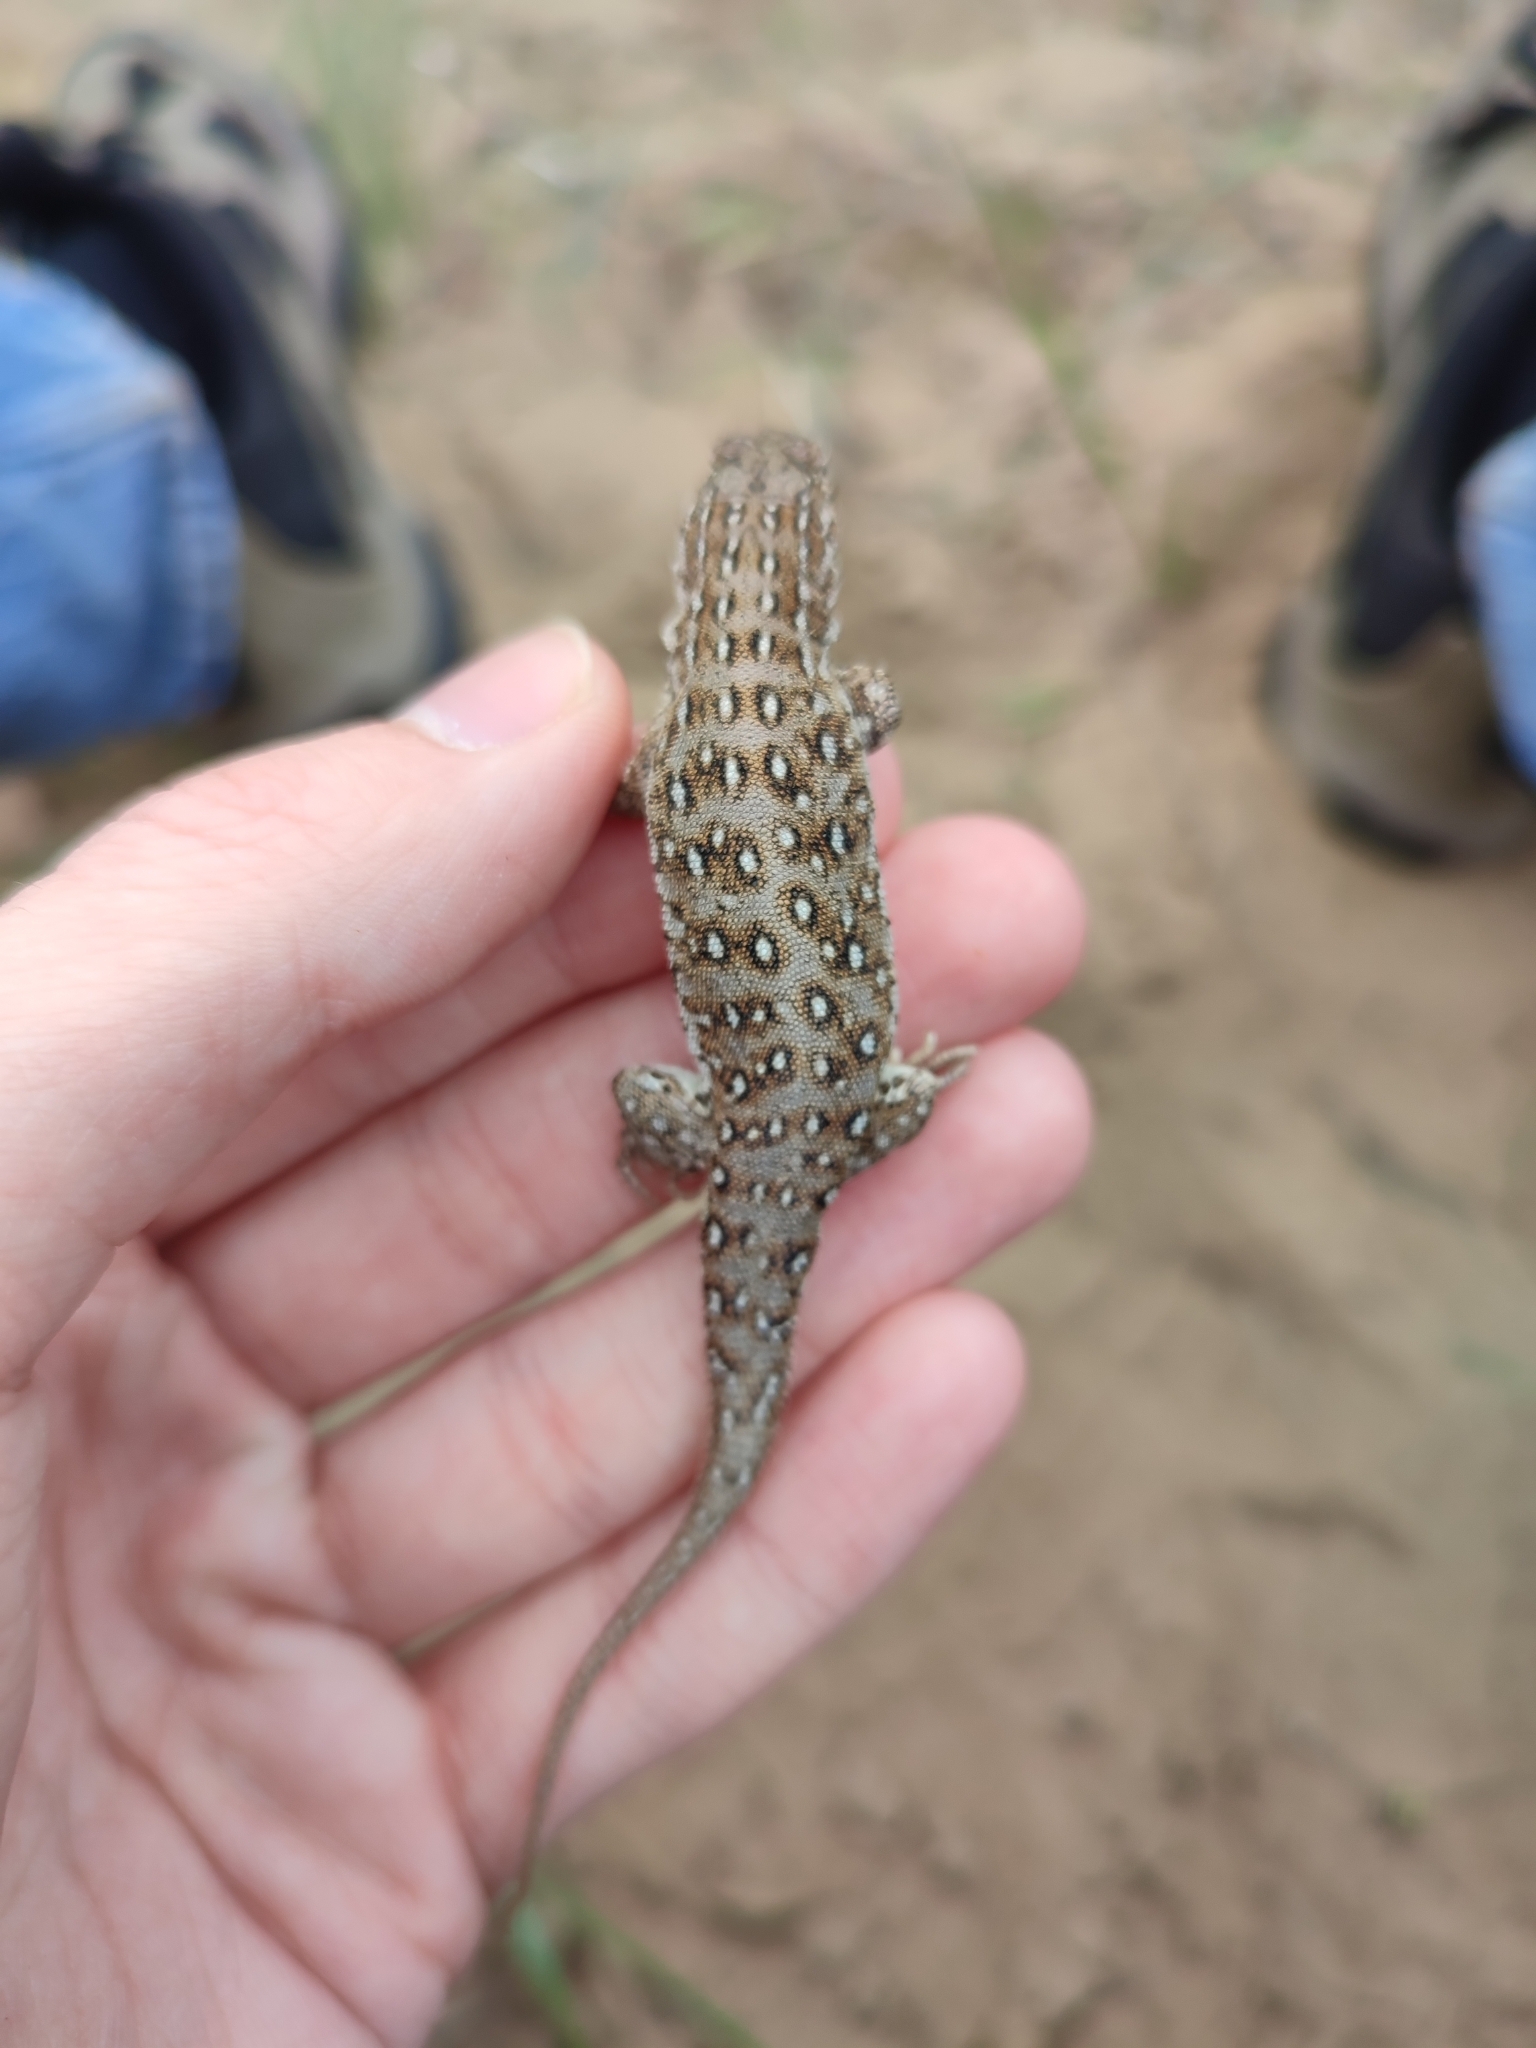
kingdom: Animalia
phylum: Chordata
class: Squamata
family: Lacertidae
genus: Eremias
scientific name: Eremias arguta
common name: Racerunner
